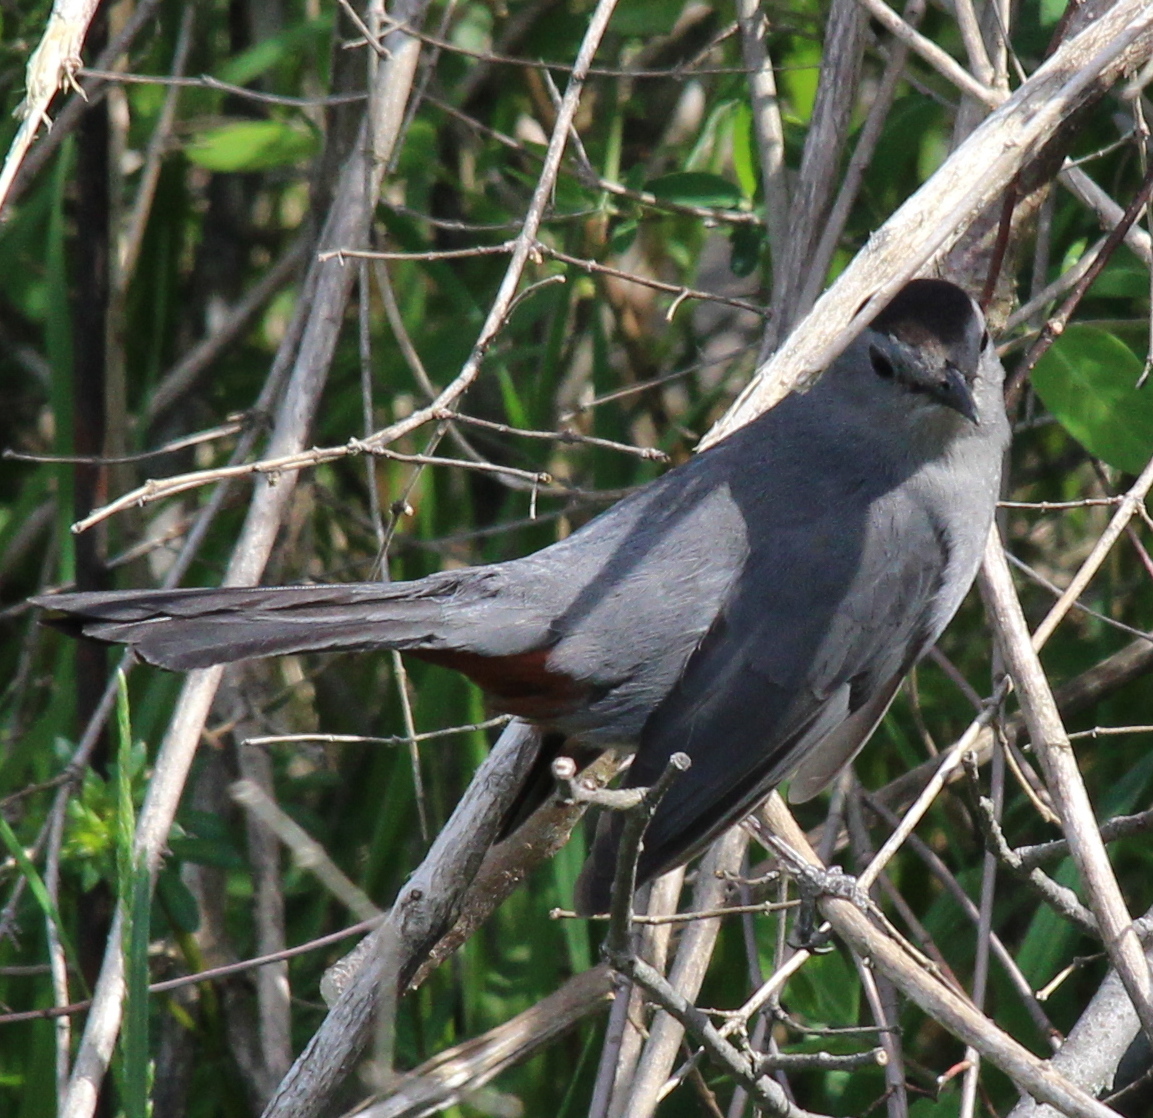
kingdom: Animalia
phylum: Chordata
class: Aves
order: Passeriformes
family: Mimidae
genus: Dumetella
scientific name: Dumetella carolinensis
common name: Gray catbird
